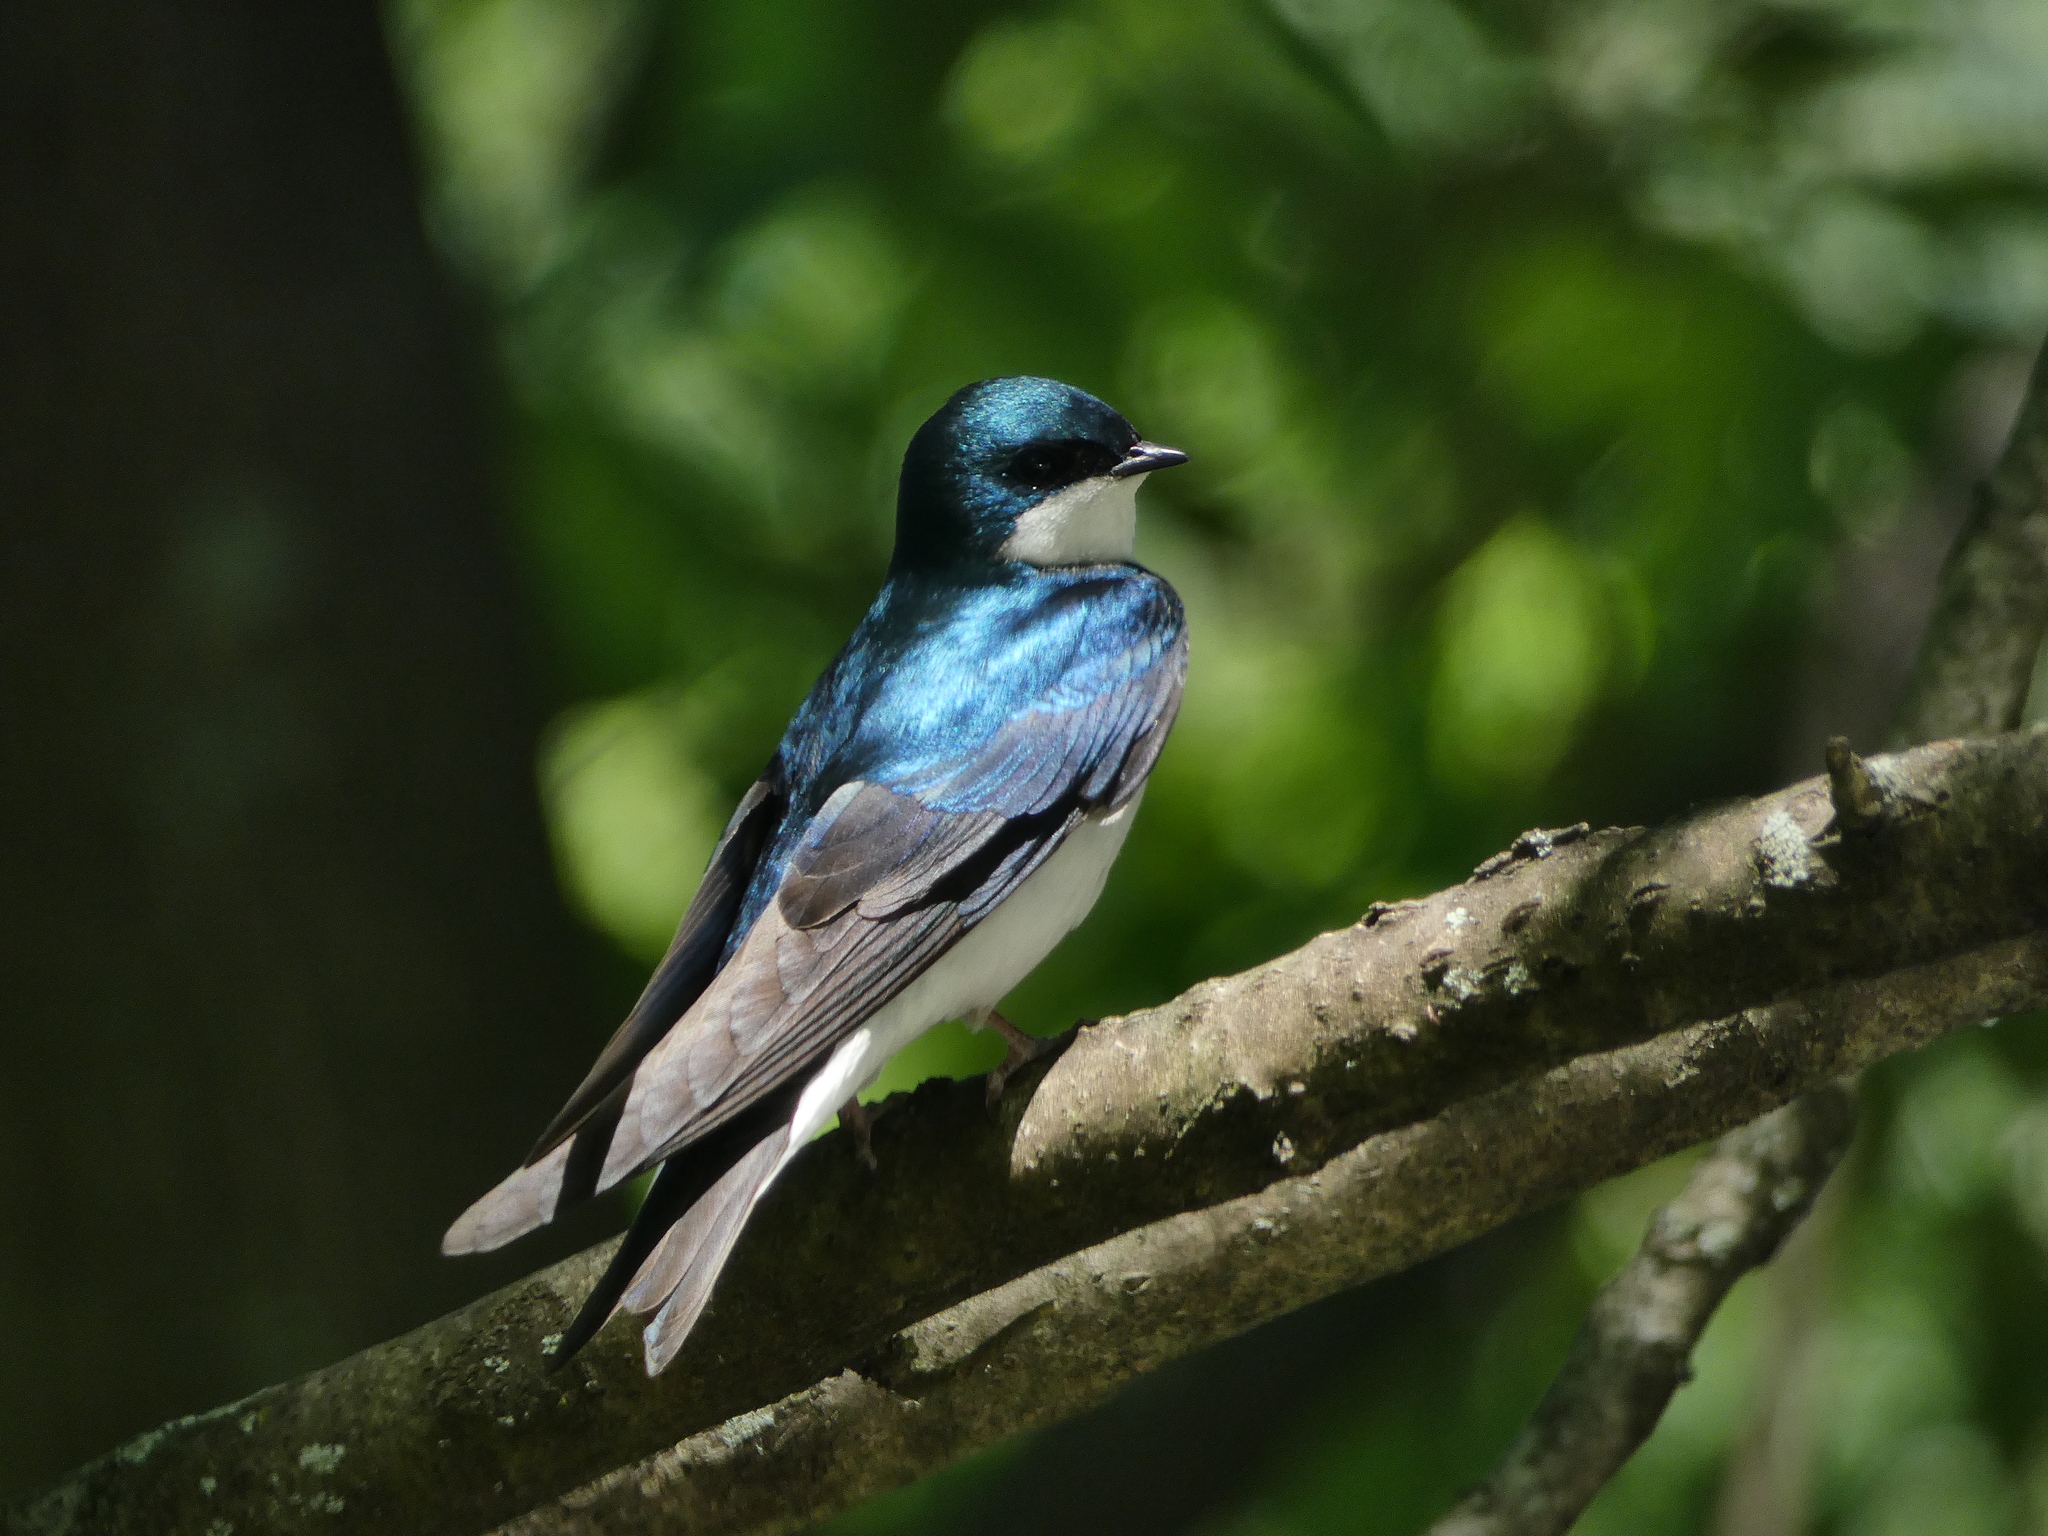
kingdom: Animalia
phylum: Chordata
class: Aves
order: Passeriformes
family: Hirundinidae
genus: Tachycineta
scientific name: Tachycineta bicolor
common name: Tree swallow
